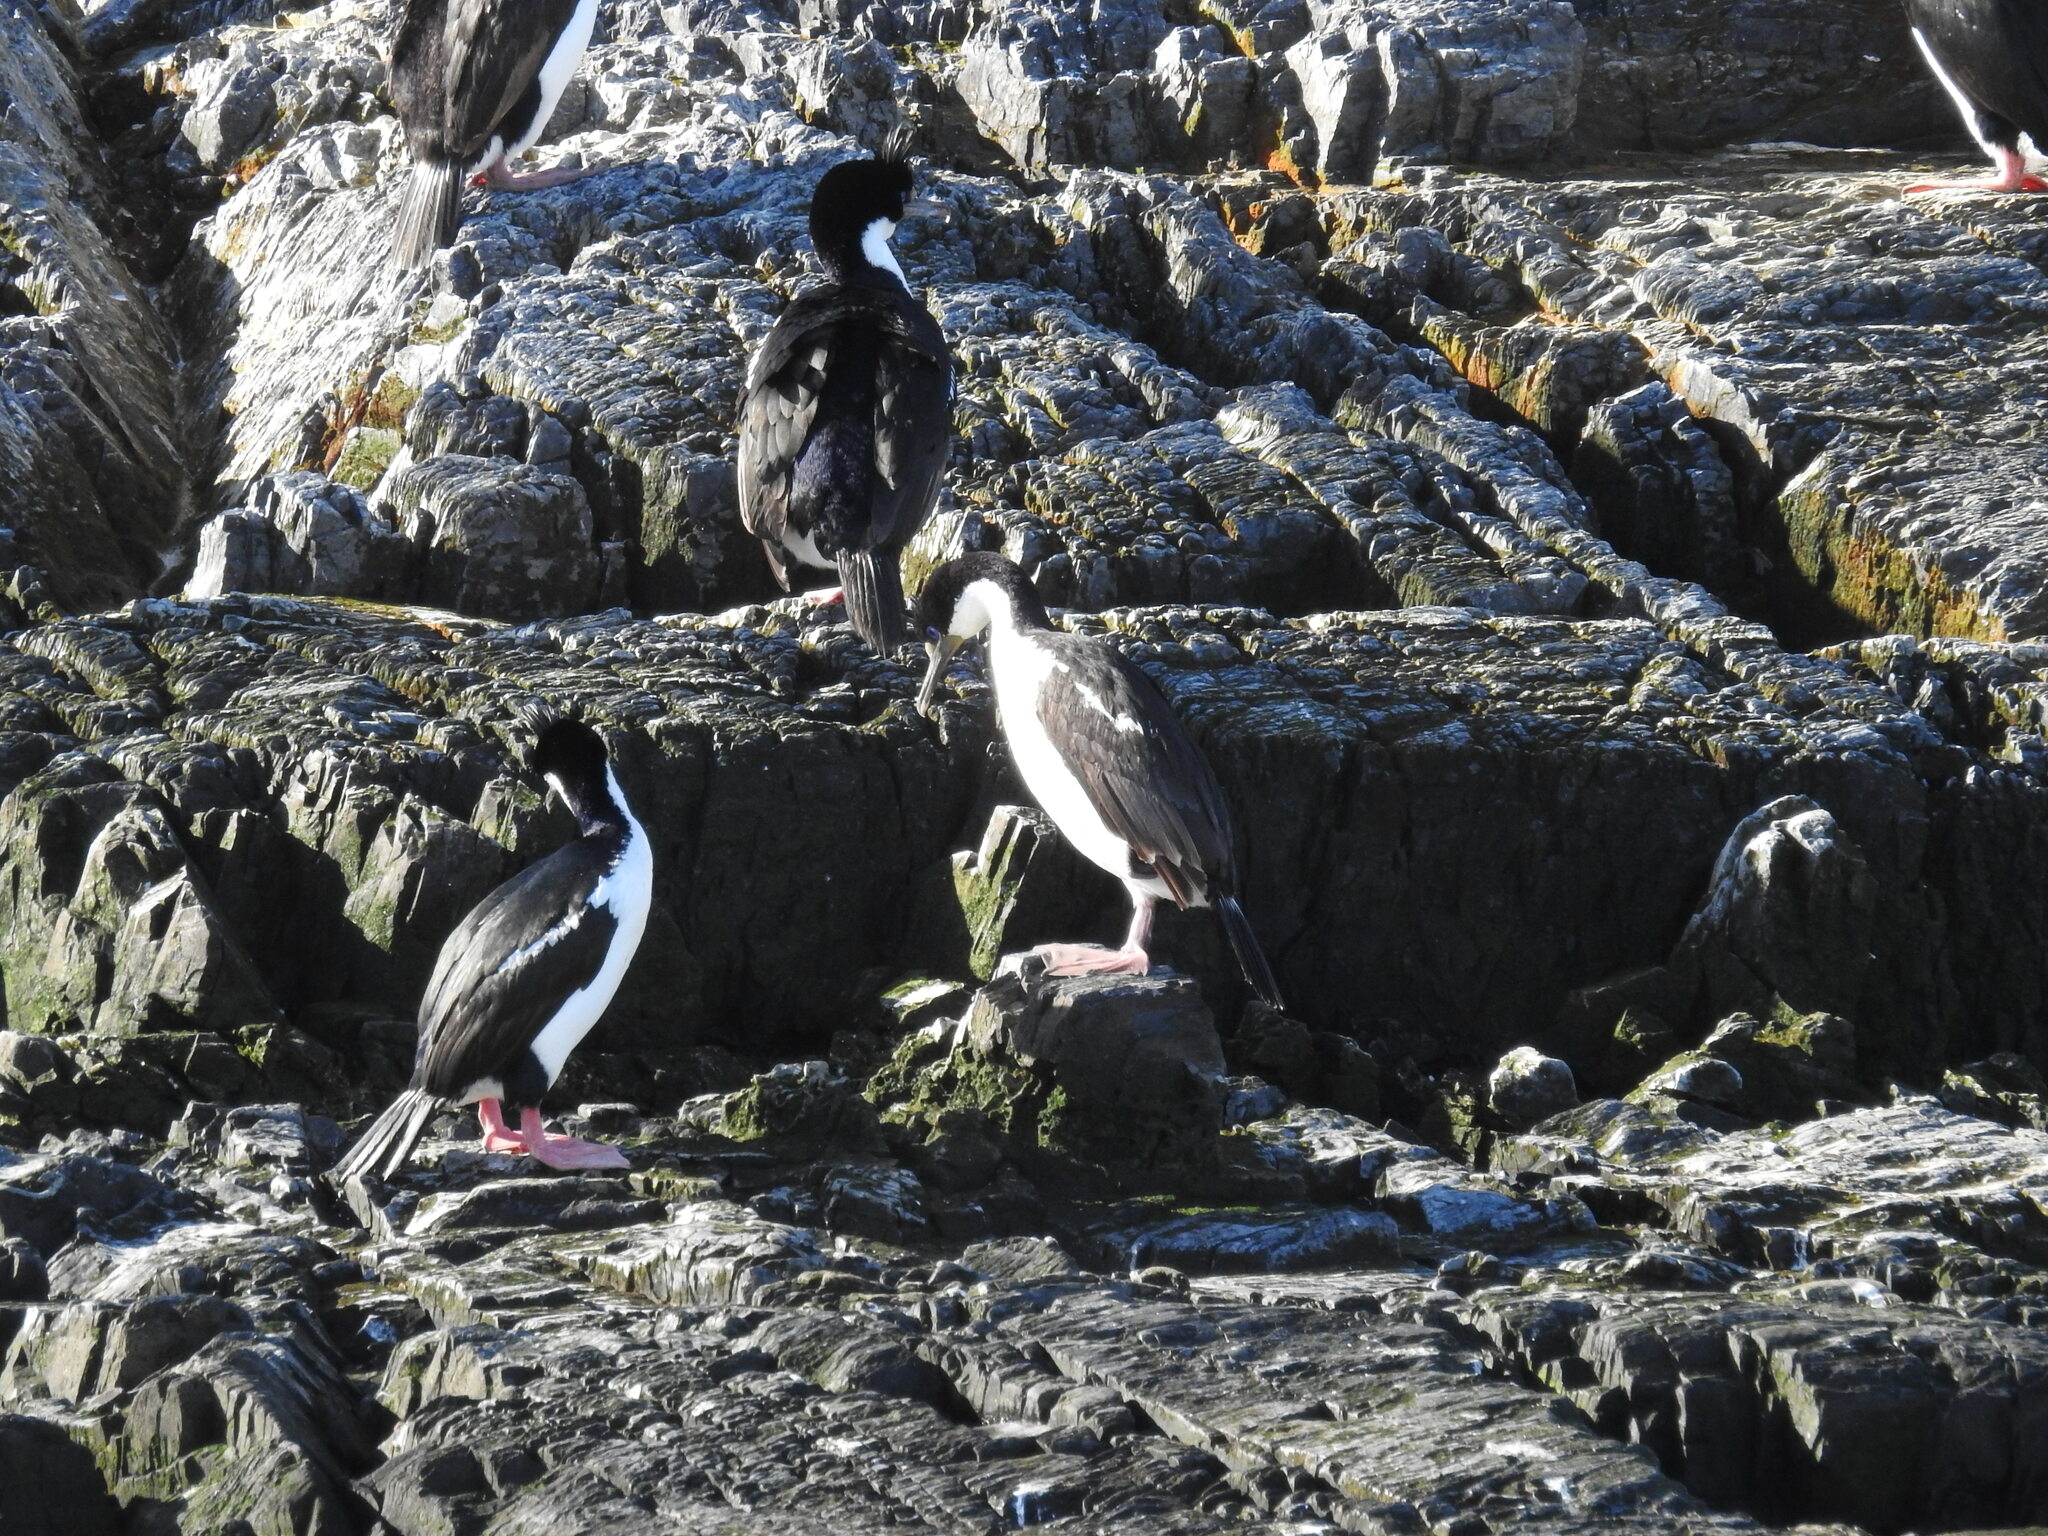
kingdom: Animalia
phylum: Chordata
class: Aves
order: Suliformes
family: Phalacrocoracidae
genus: Leucocarbo
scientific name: Leucocarbo atriceps
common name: Imperial shag
